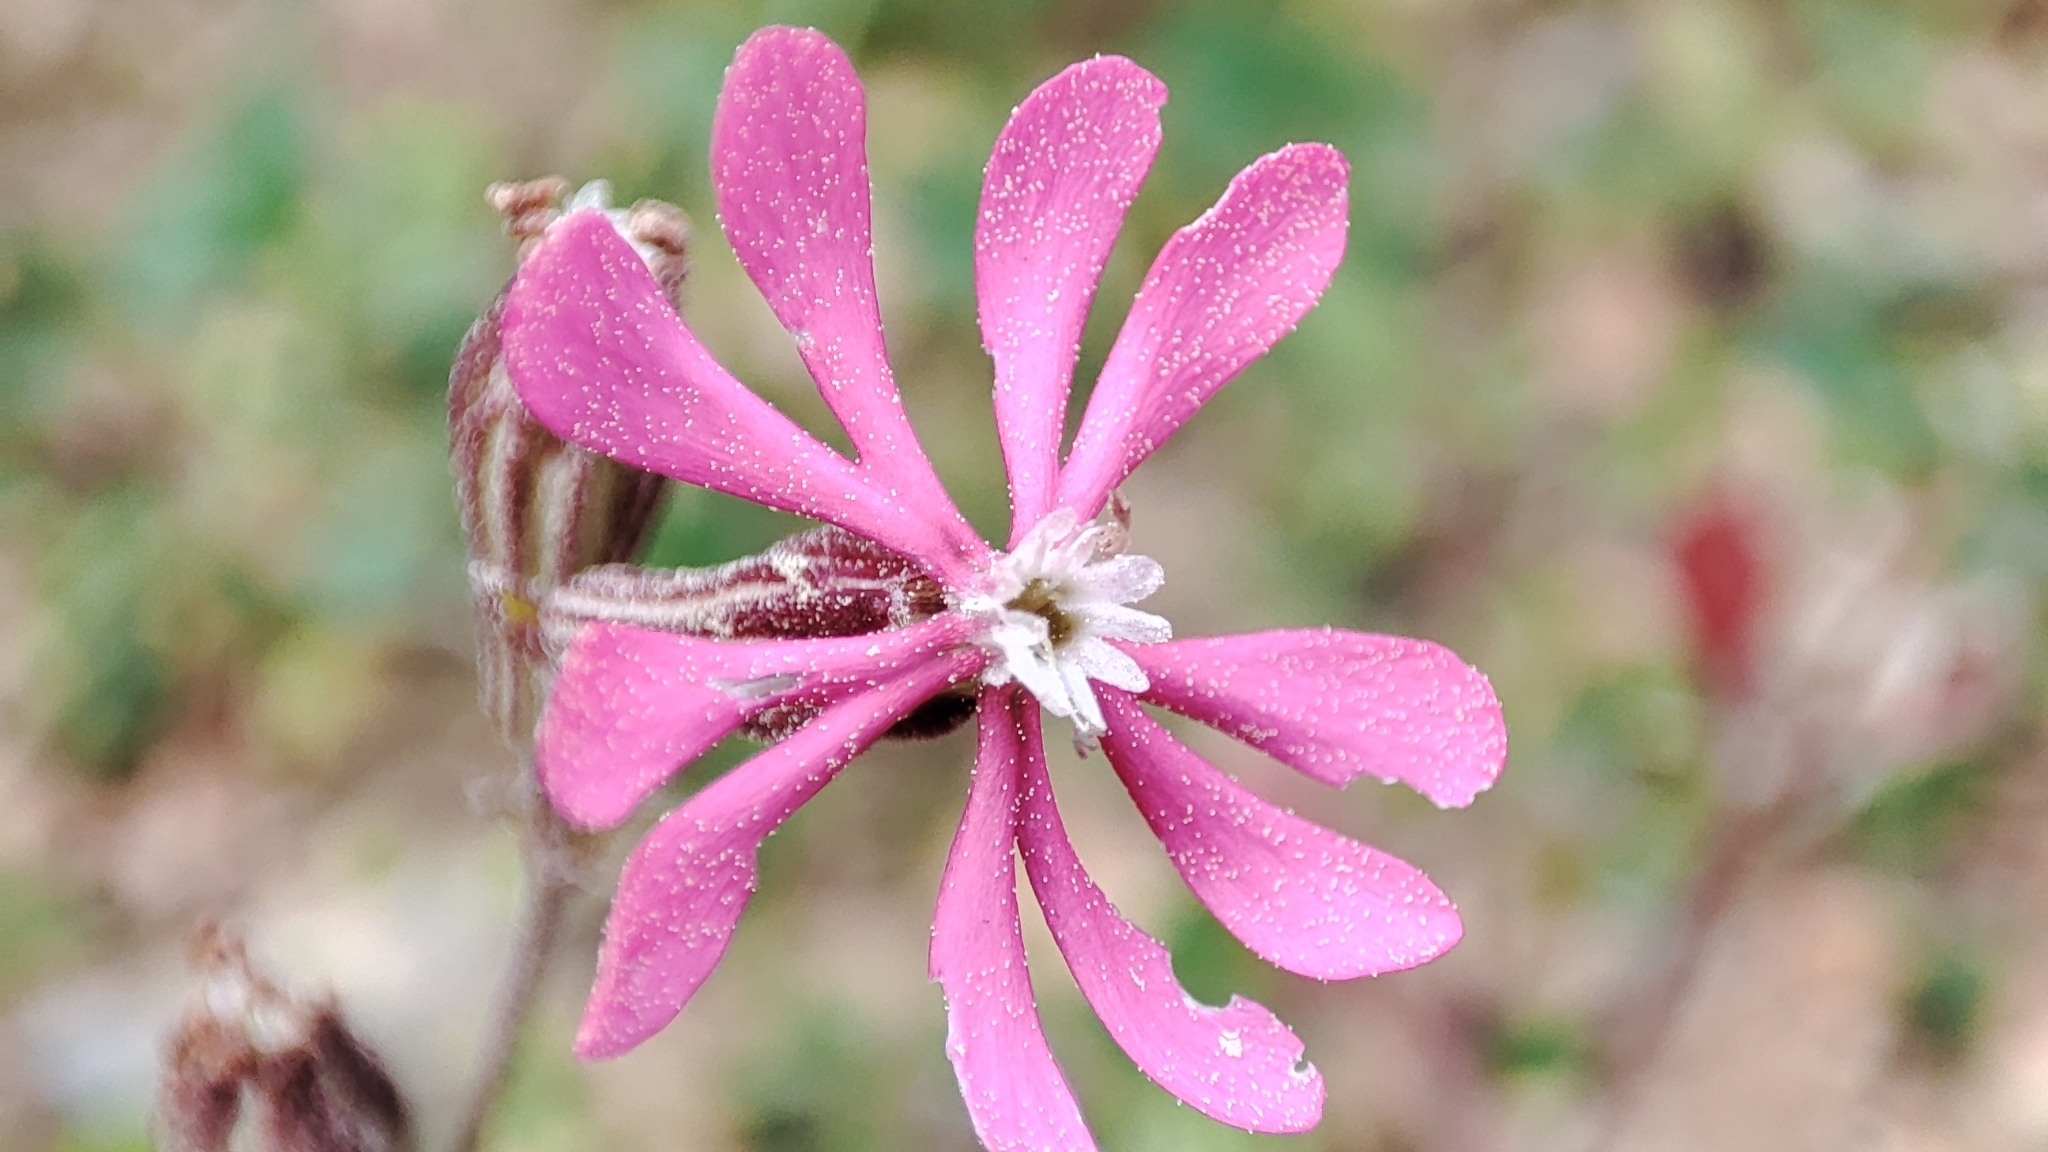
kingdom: Plantae
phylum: Tracheophyta
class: Magnoliopsida
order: Caryophyllales
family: Caryophyllaceae
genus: Silene
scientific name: Silene colorata
